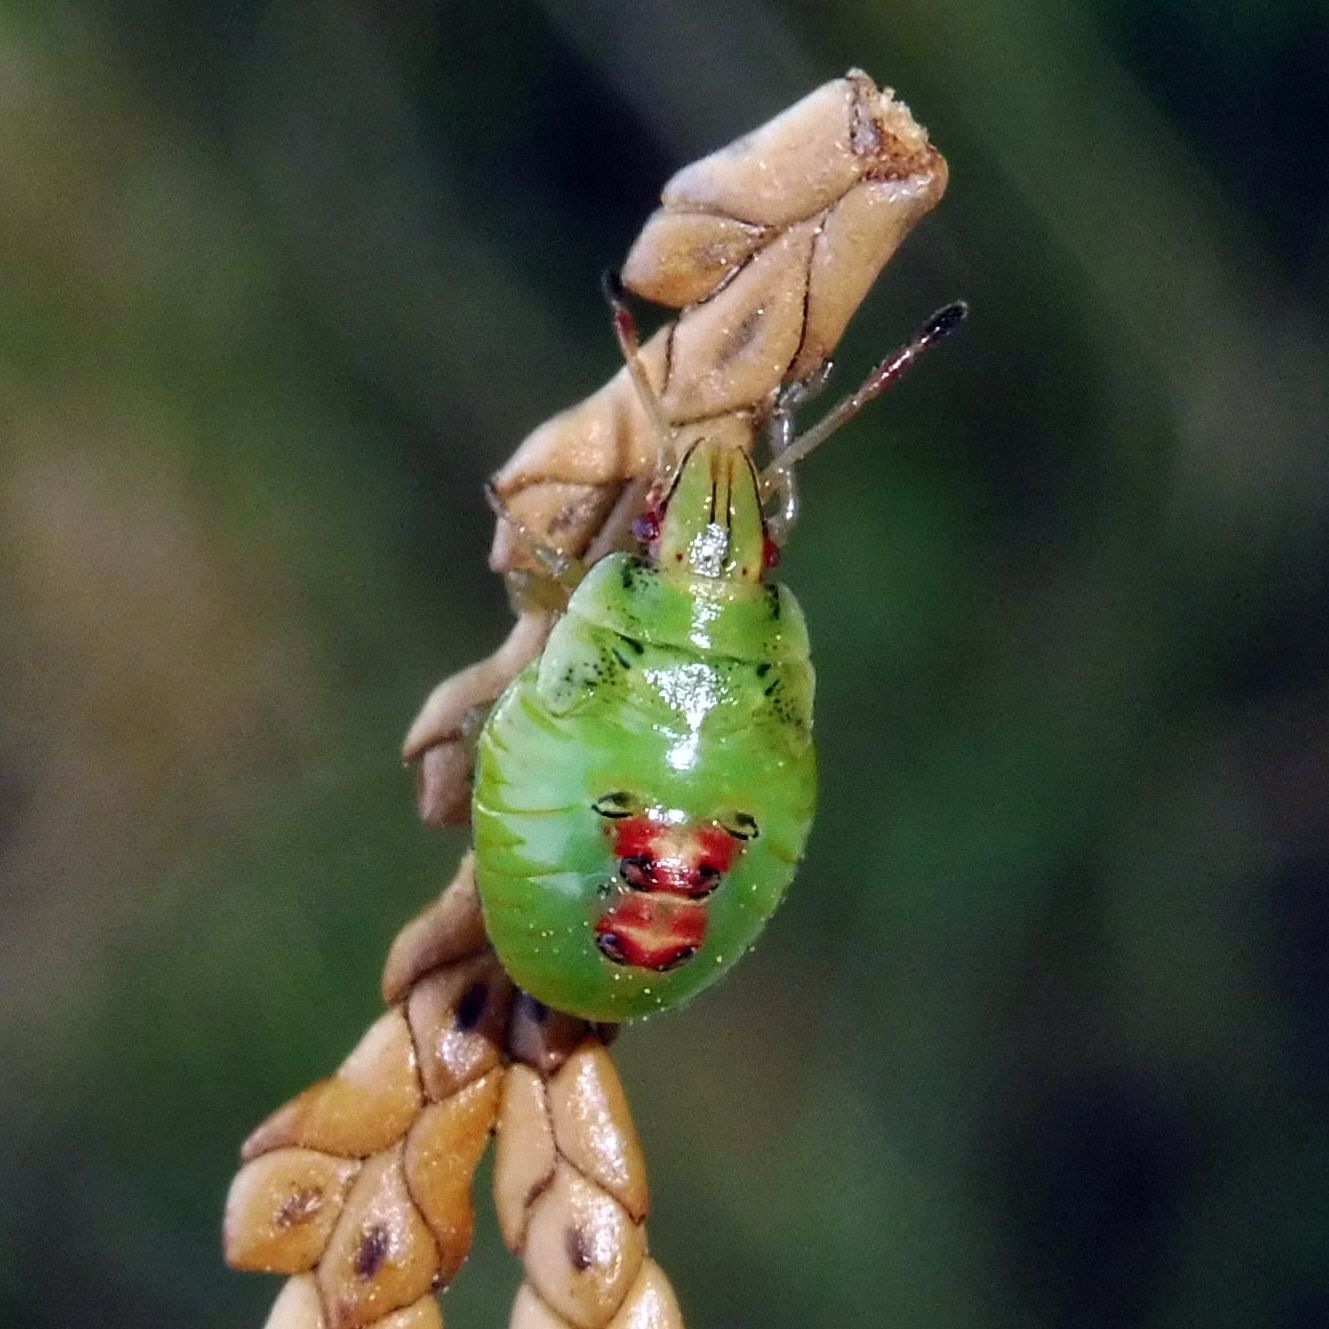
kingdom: Animalia
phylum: Arthropoda
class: Insecta
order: Hemiptera
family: Acanthosomatidae
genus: Cyphostethus
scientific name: Cyphostethus tristriatus
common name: Juniper shieldbug
